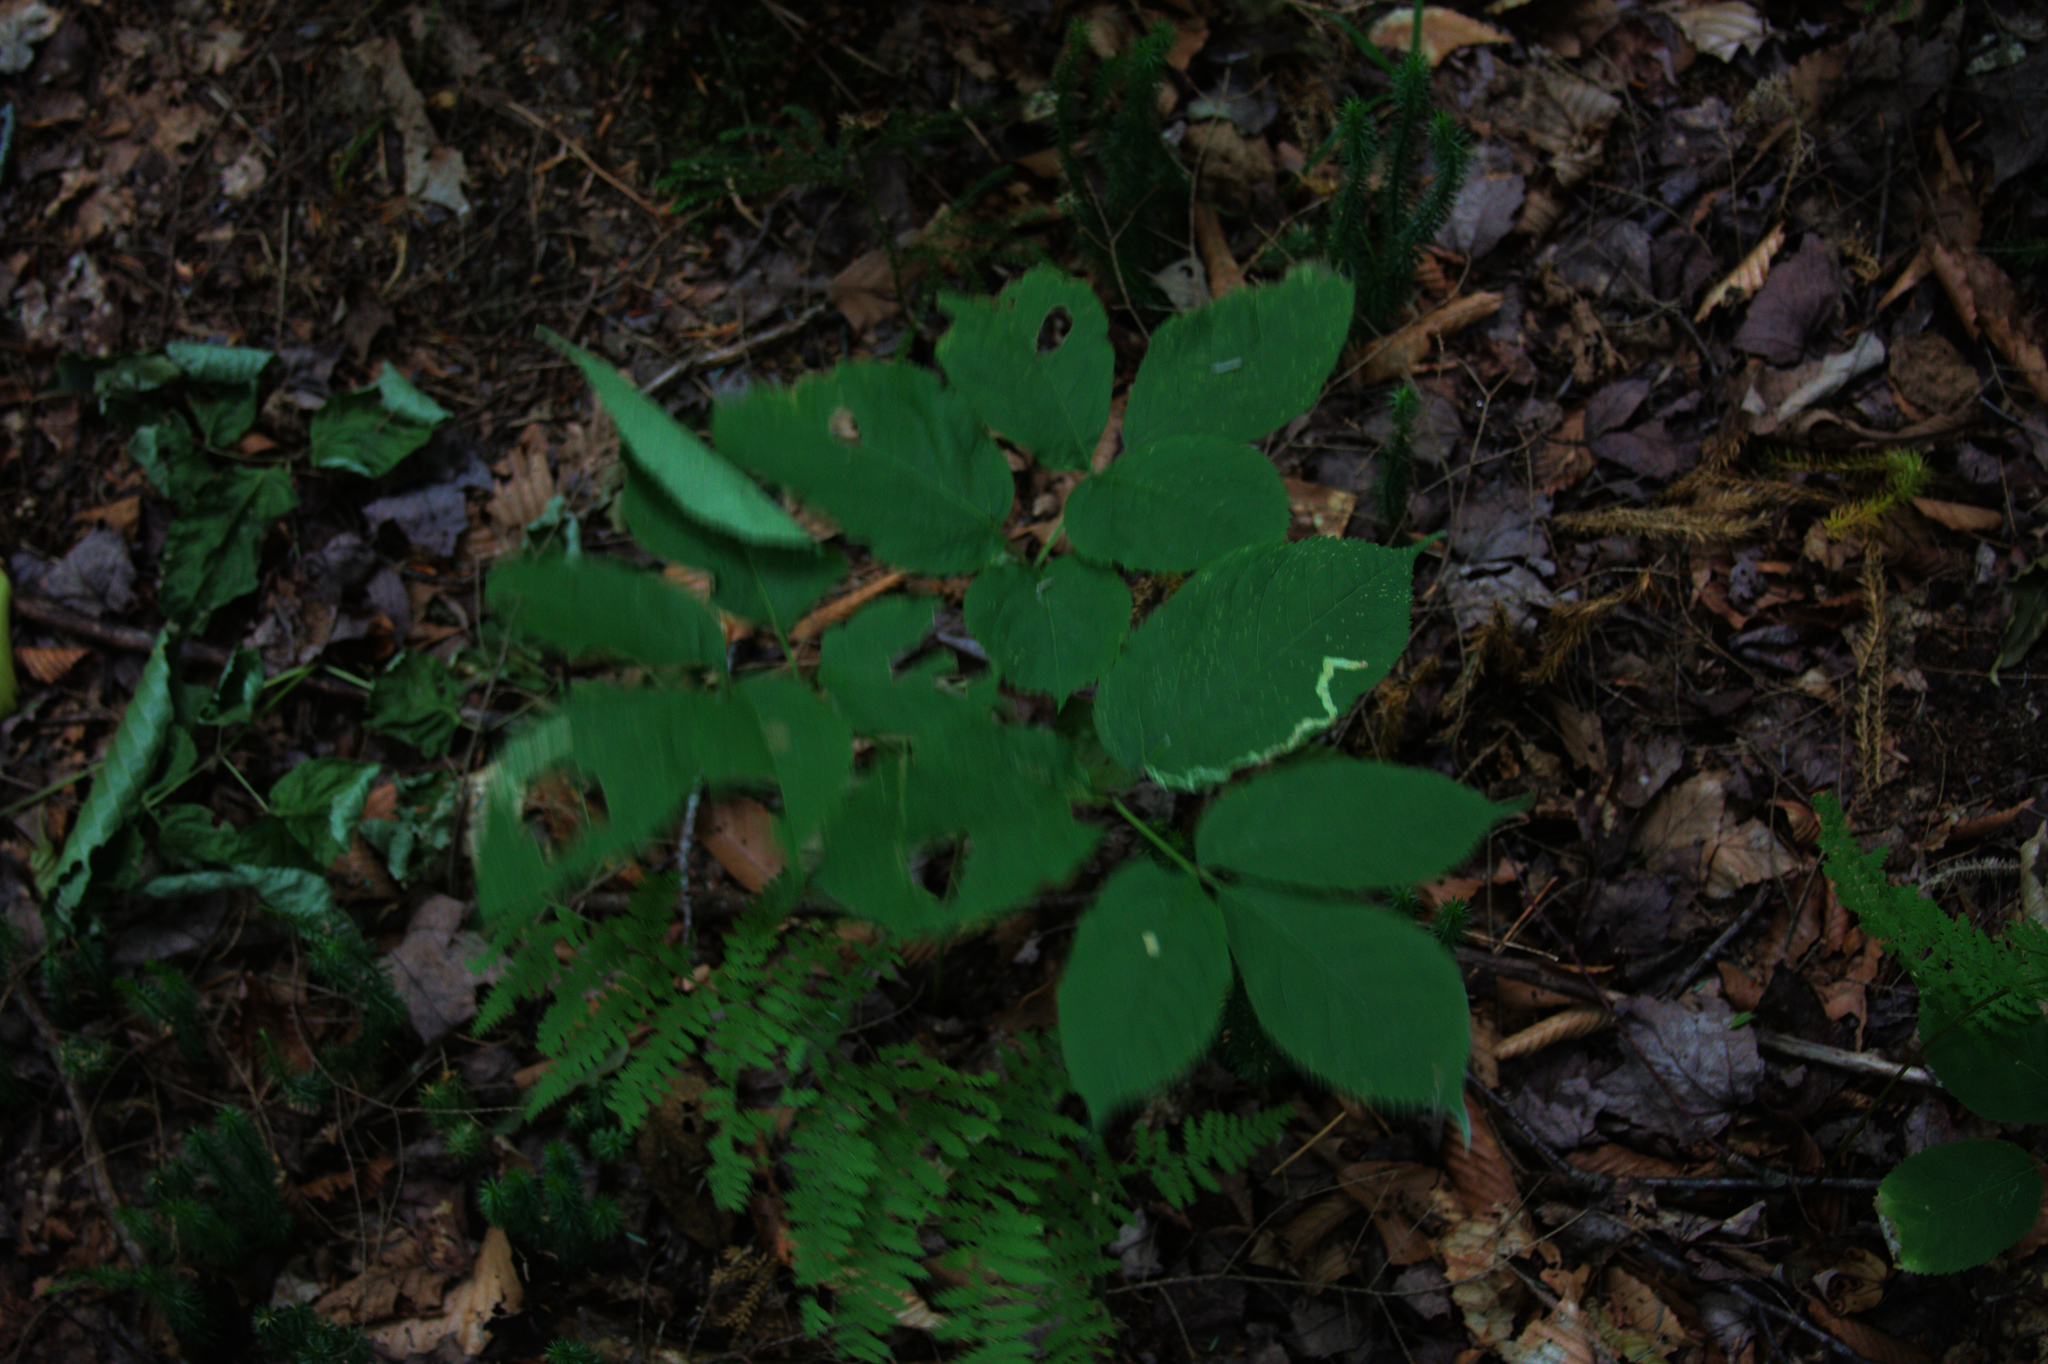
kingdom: Plantae
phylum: Tracheophyta
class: Magnoliopsida
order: Apiales
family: Araliaceae
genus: Aralia
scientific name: Aralia nudicaulis
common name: Wild sarsaparilla
